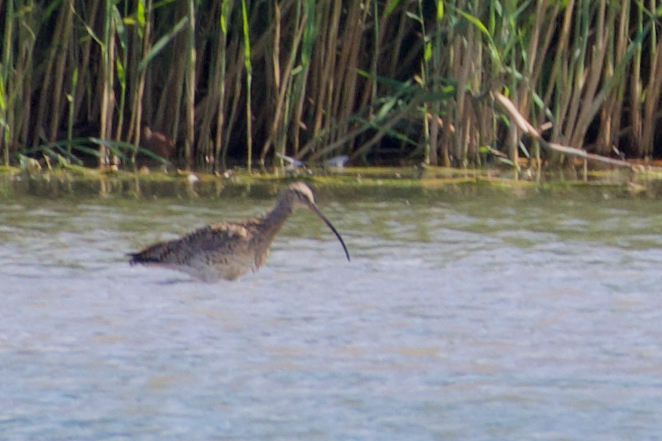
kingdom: Animalia
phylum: Chordata
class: Aves
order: Charadriiformes
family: Scolopacidae
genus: Numenius
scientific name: Numenius arquata
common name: Eurasian curlew
